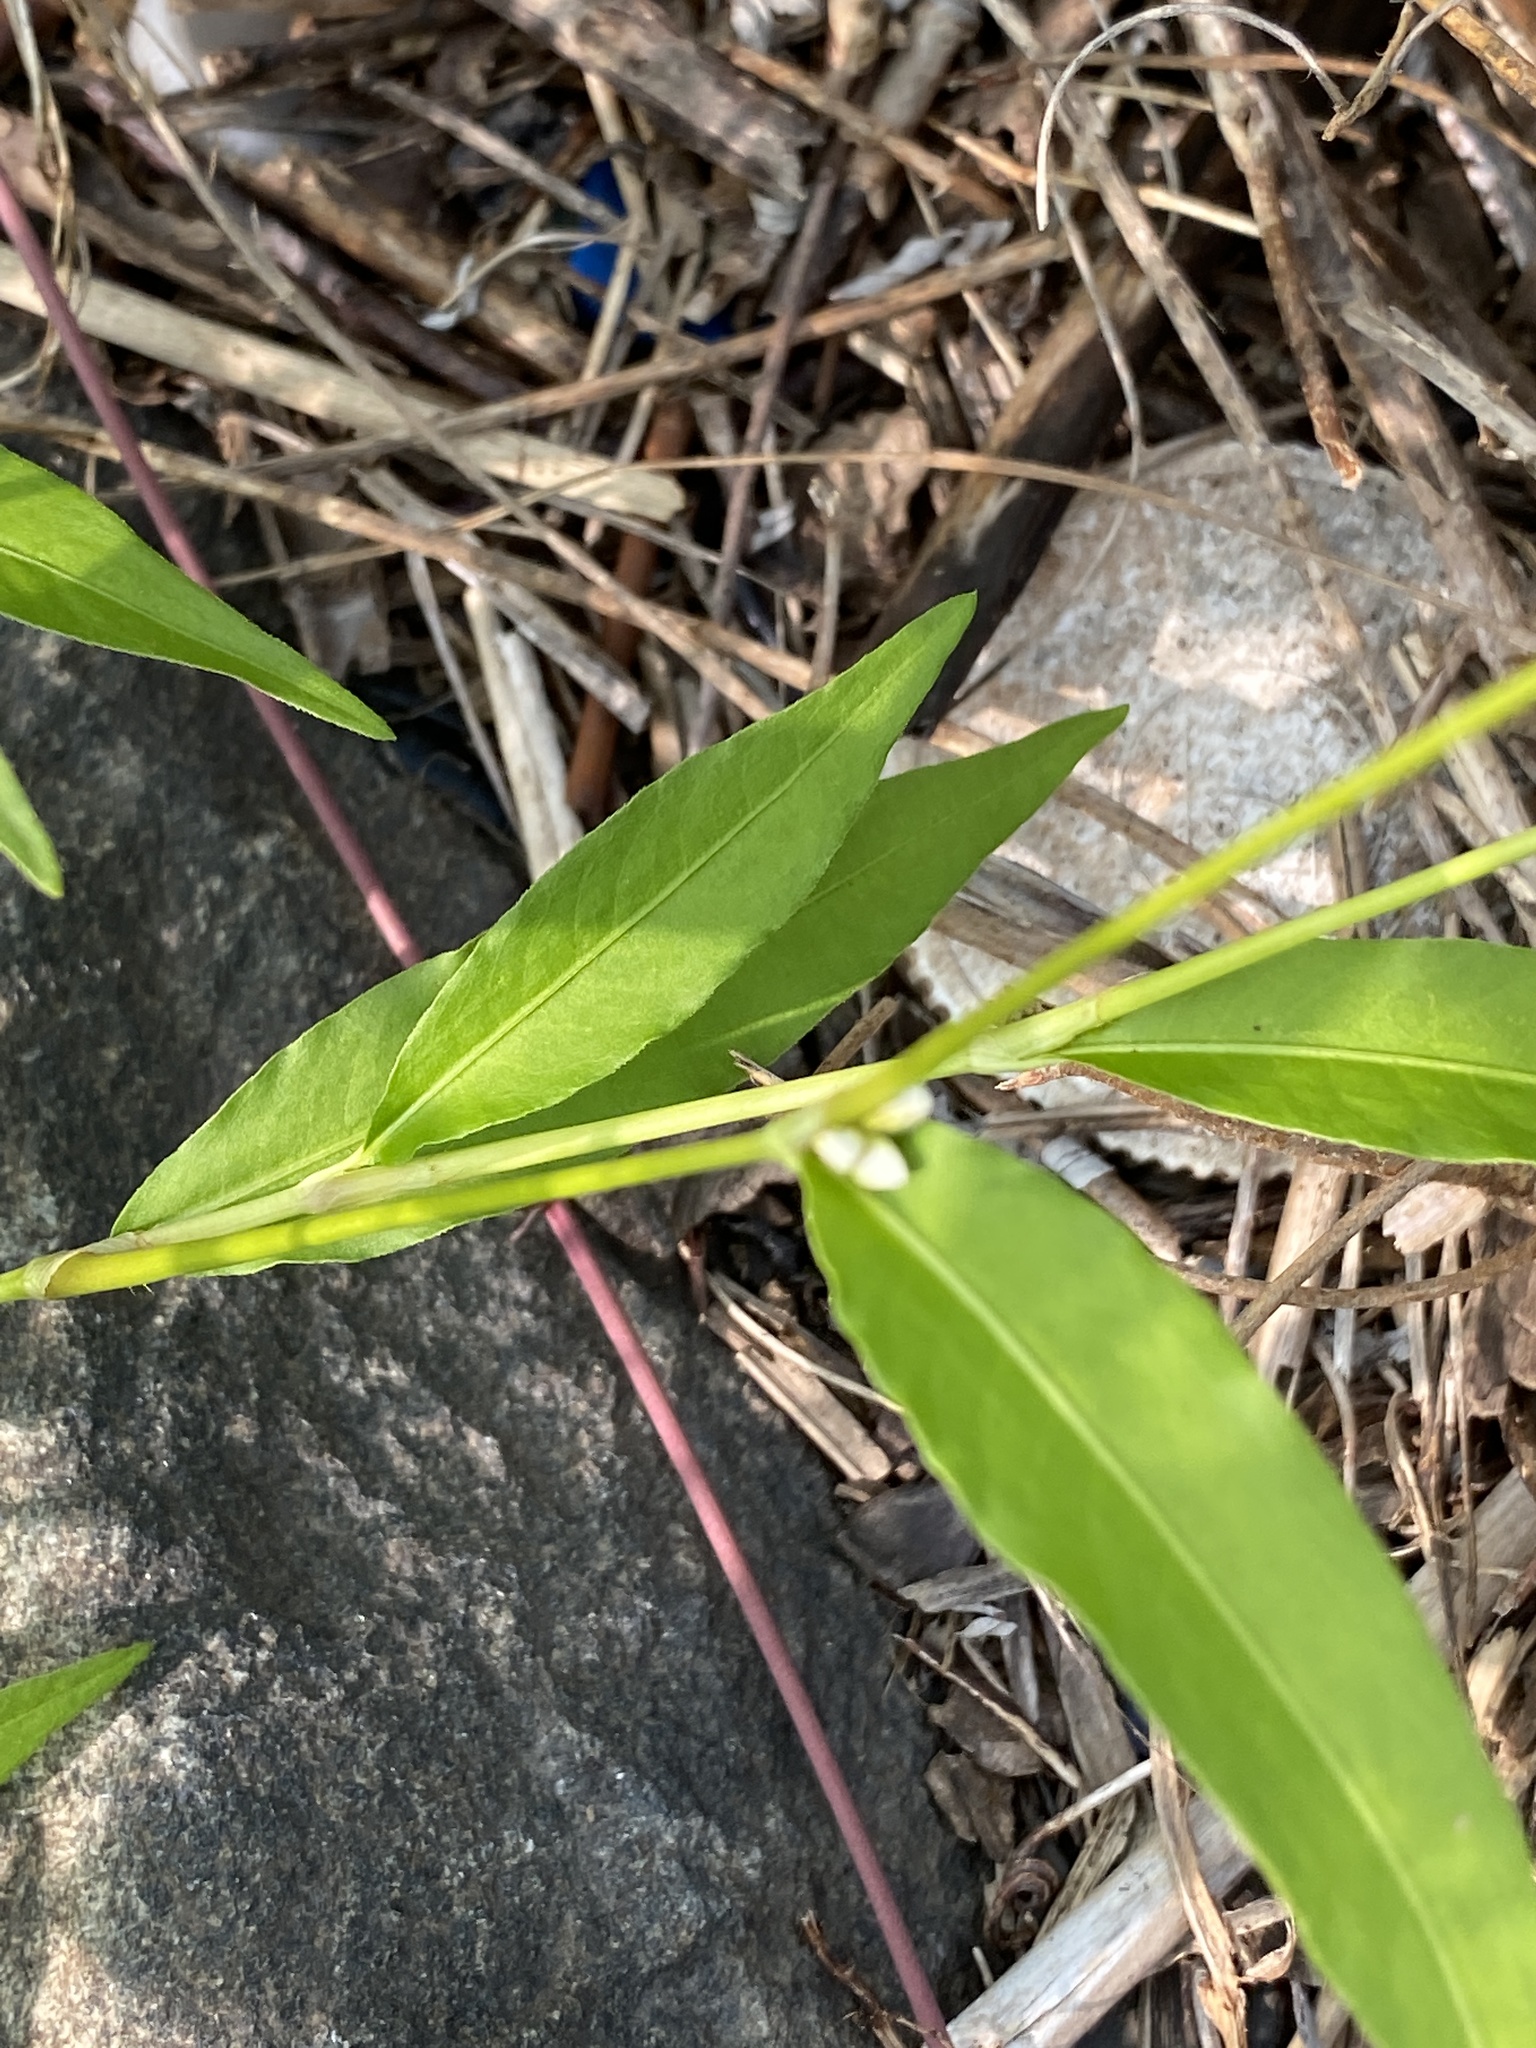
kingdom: Plantae
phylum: Tracheophyta
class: Magnoliopsida
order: Caryophyllales
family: Polygonaceae
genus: Persicaria
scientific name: Persicaria punctata
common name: Dotted smartweed
